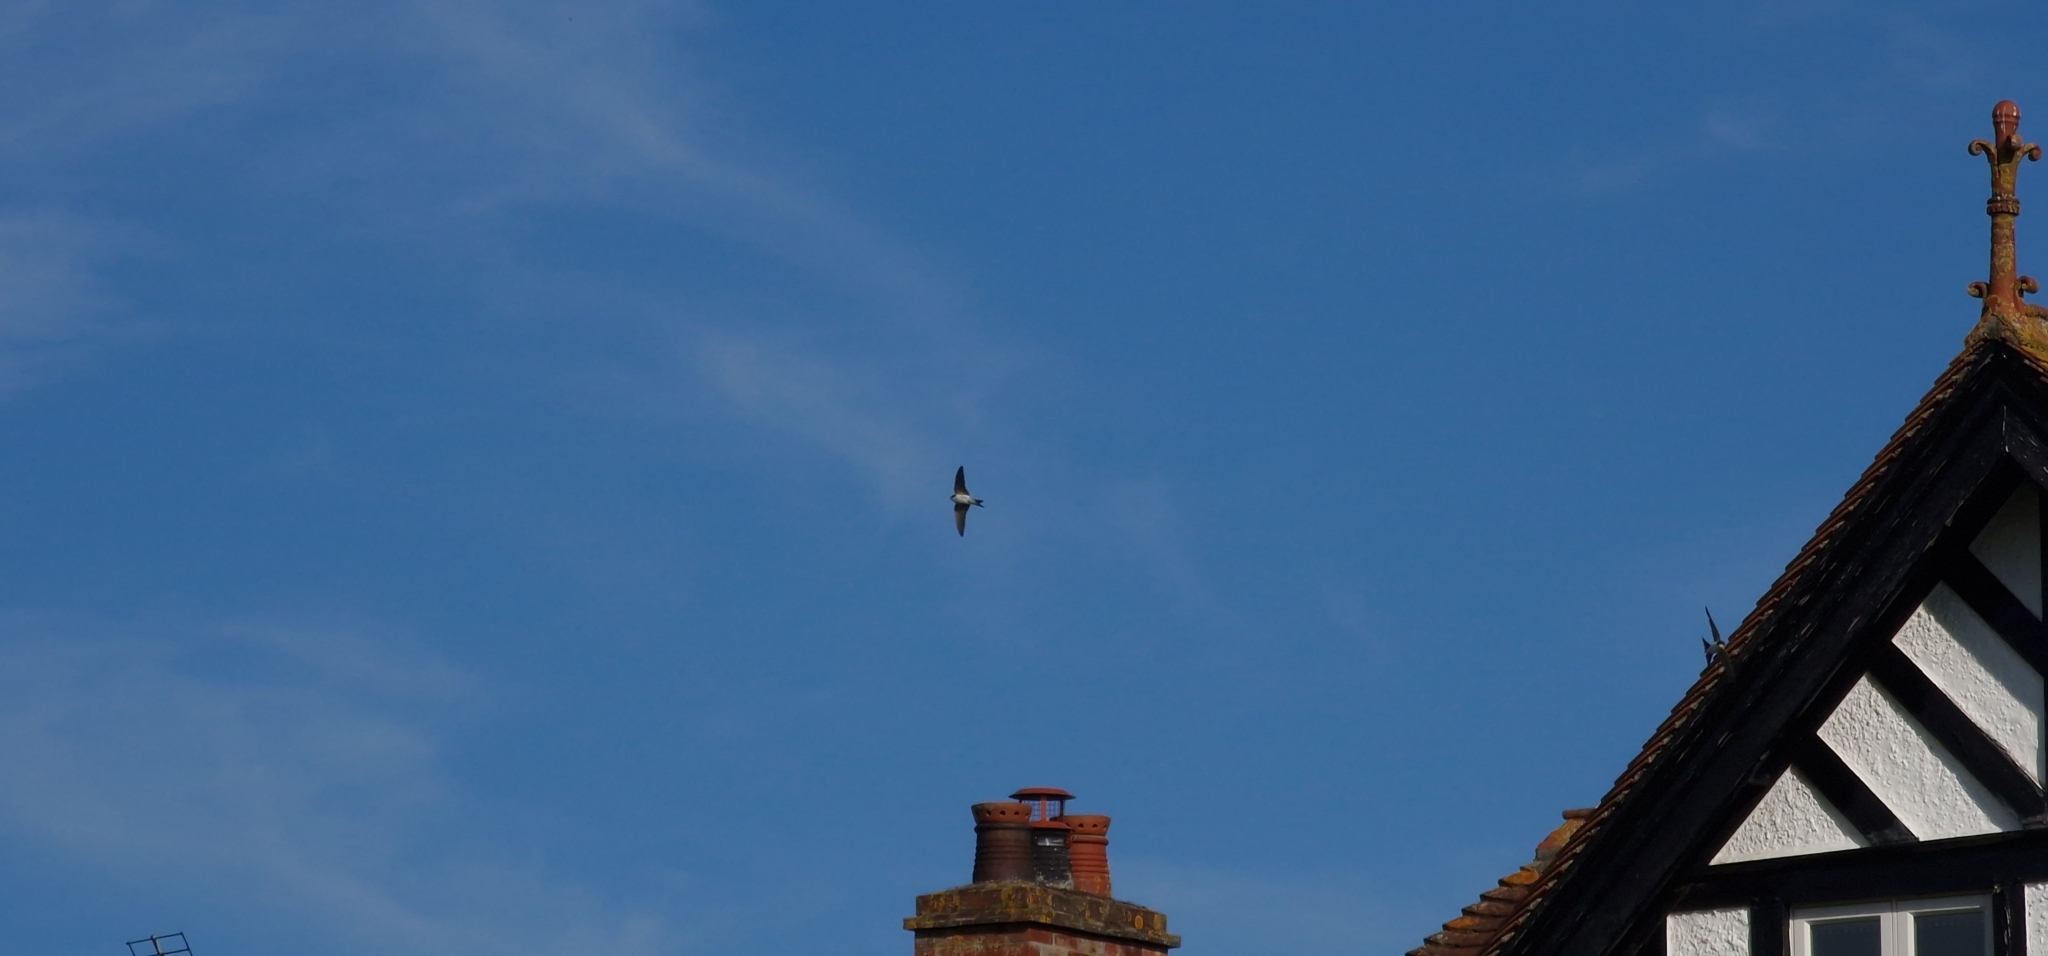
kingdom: Animalia
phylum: Chordata
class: Aves
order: Passeriformes
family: Hirundinidae
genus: Delichon
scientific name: Delichon urbicum
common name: Common house martin
